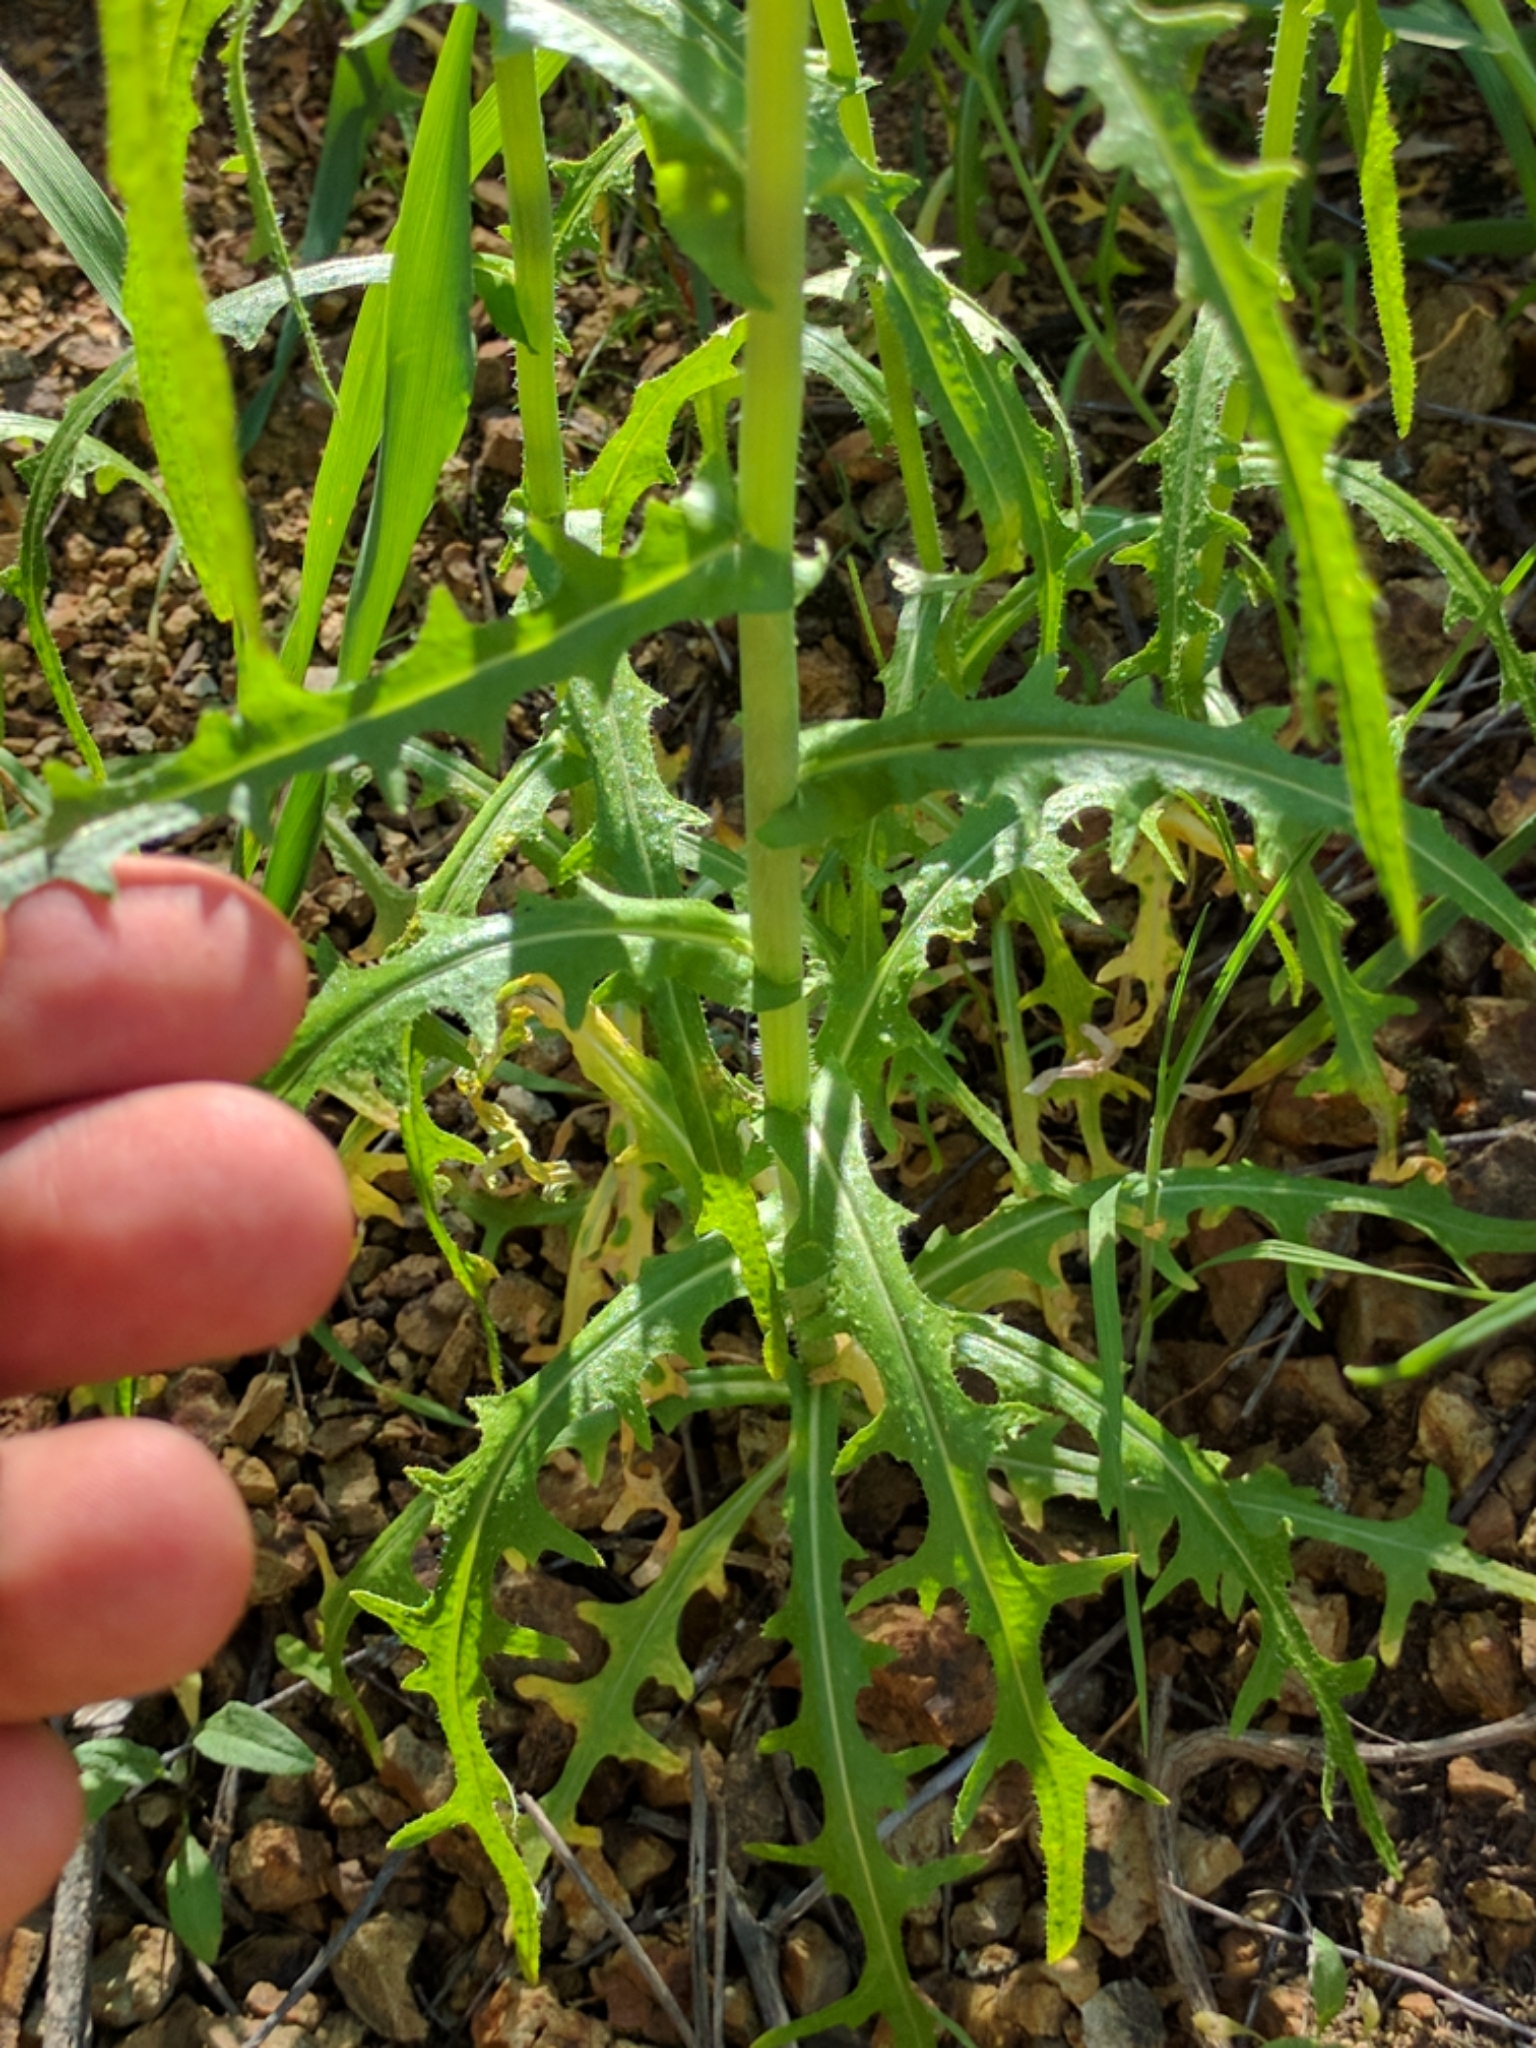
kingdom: Plantae
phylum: Tracheophyta
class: Magnoliopsida
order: Brassicales
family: Brassicaceae
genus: Streptanthus
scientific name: Streptanthus heterophyllus
